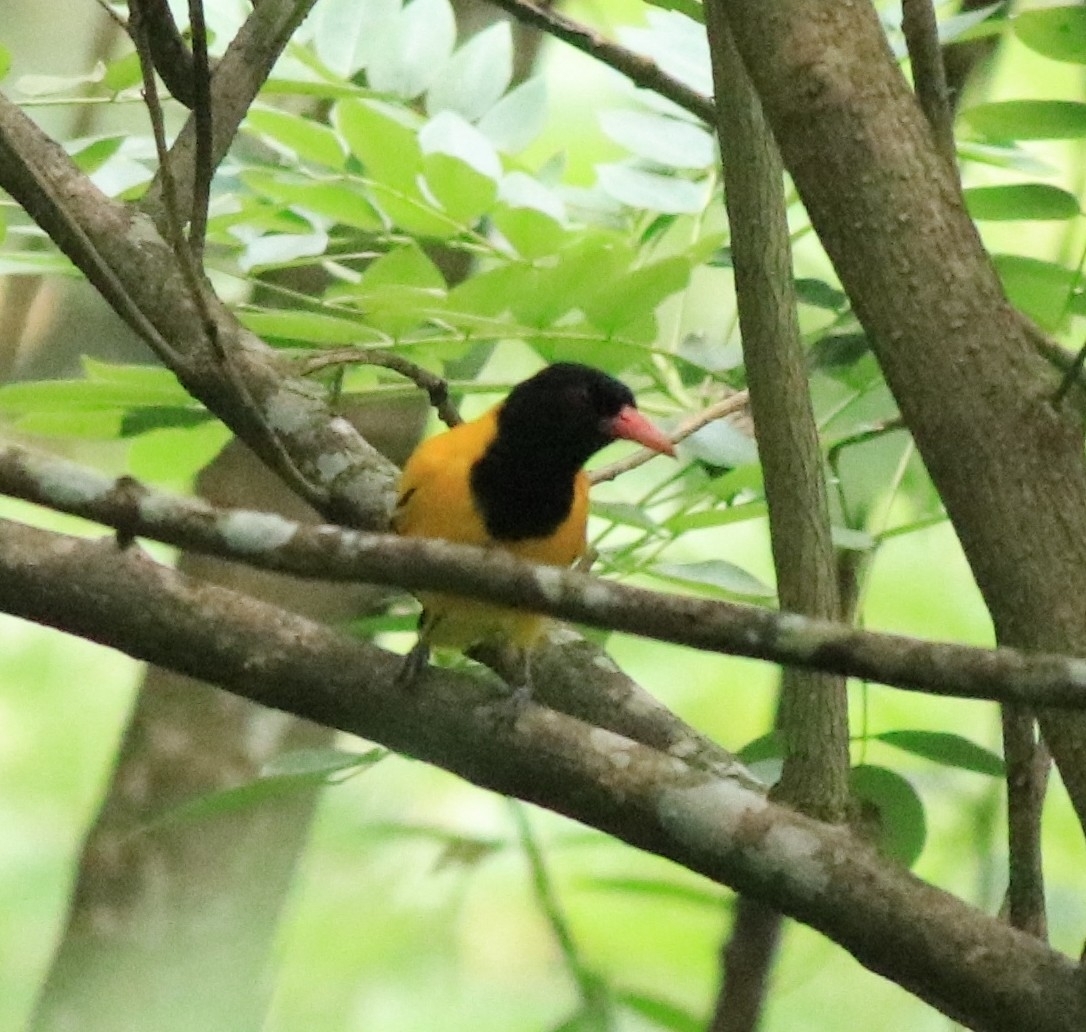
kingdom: Animalia
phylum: Chordata
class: Aves
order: Passeriformes
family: Oriolidae
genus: Oriolus
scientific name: Oriolus xanthornus
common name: Black-hooded oriole
